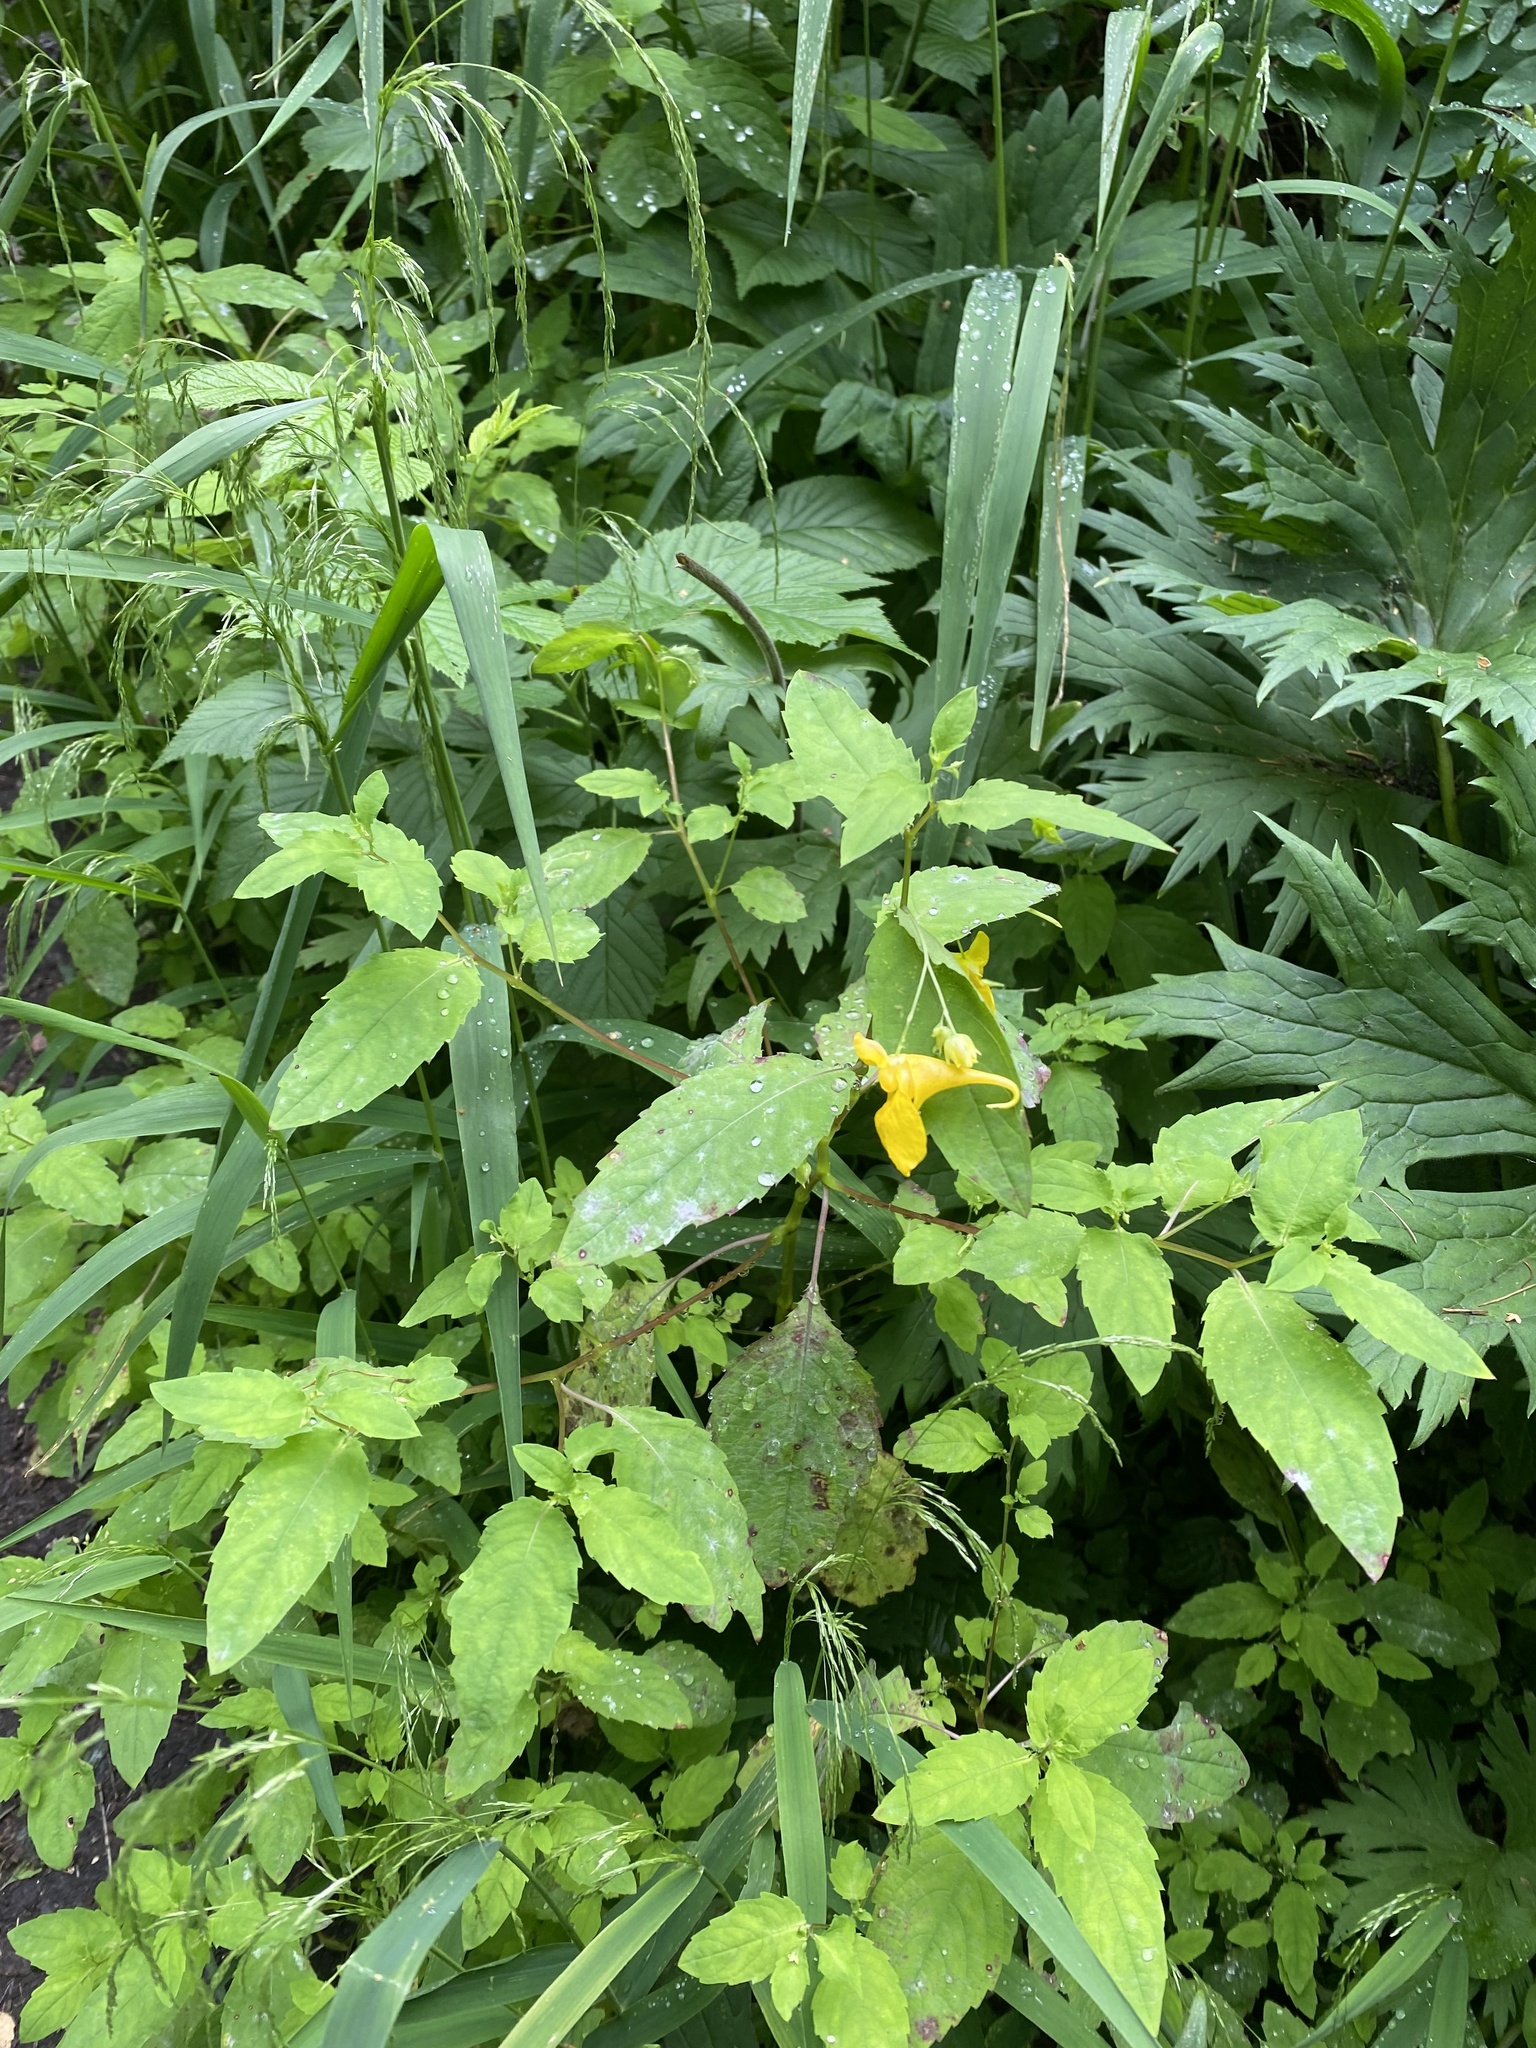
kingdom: Plantae
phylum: Tracheophyta
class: Magnoliopsida
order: Ericales
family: Balsaminaceae
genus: Impatiens
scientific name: Impatiens noli-tangere
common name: Touch-me-not balsam
